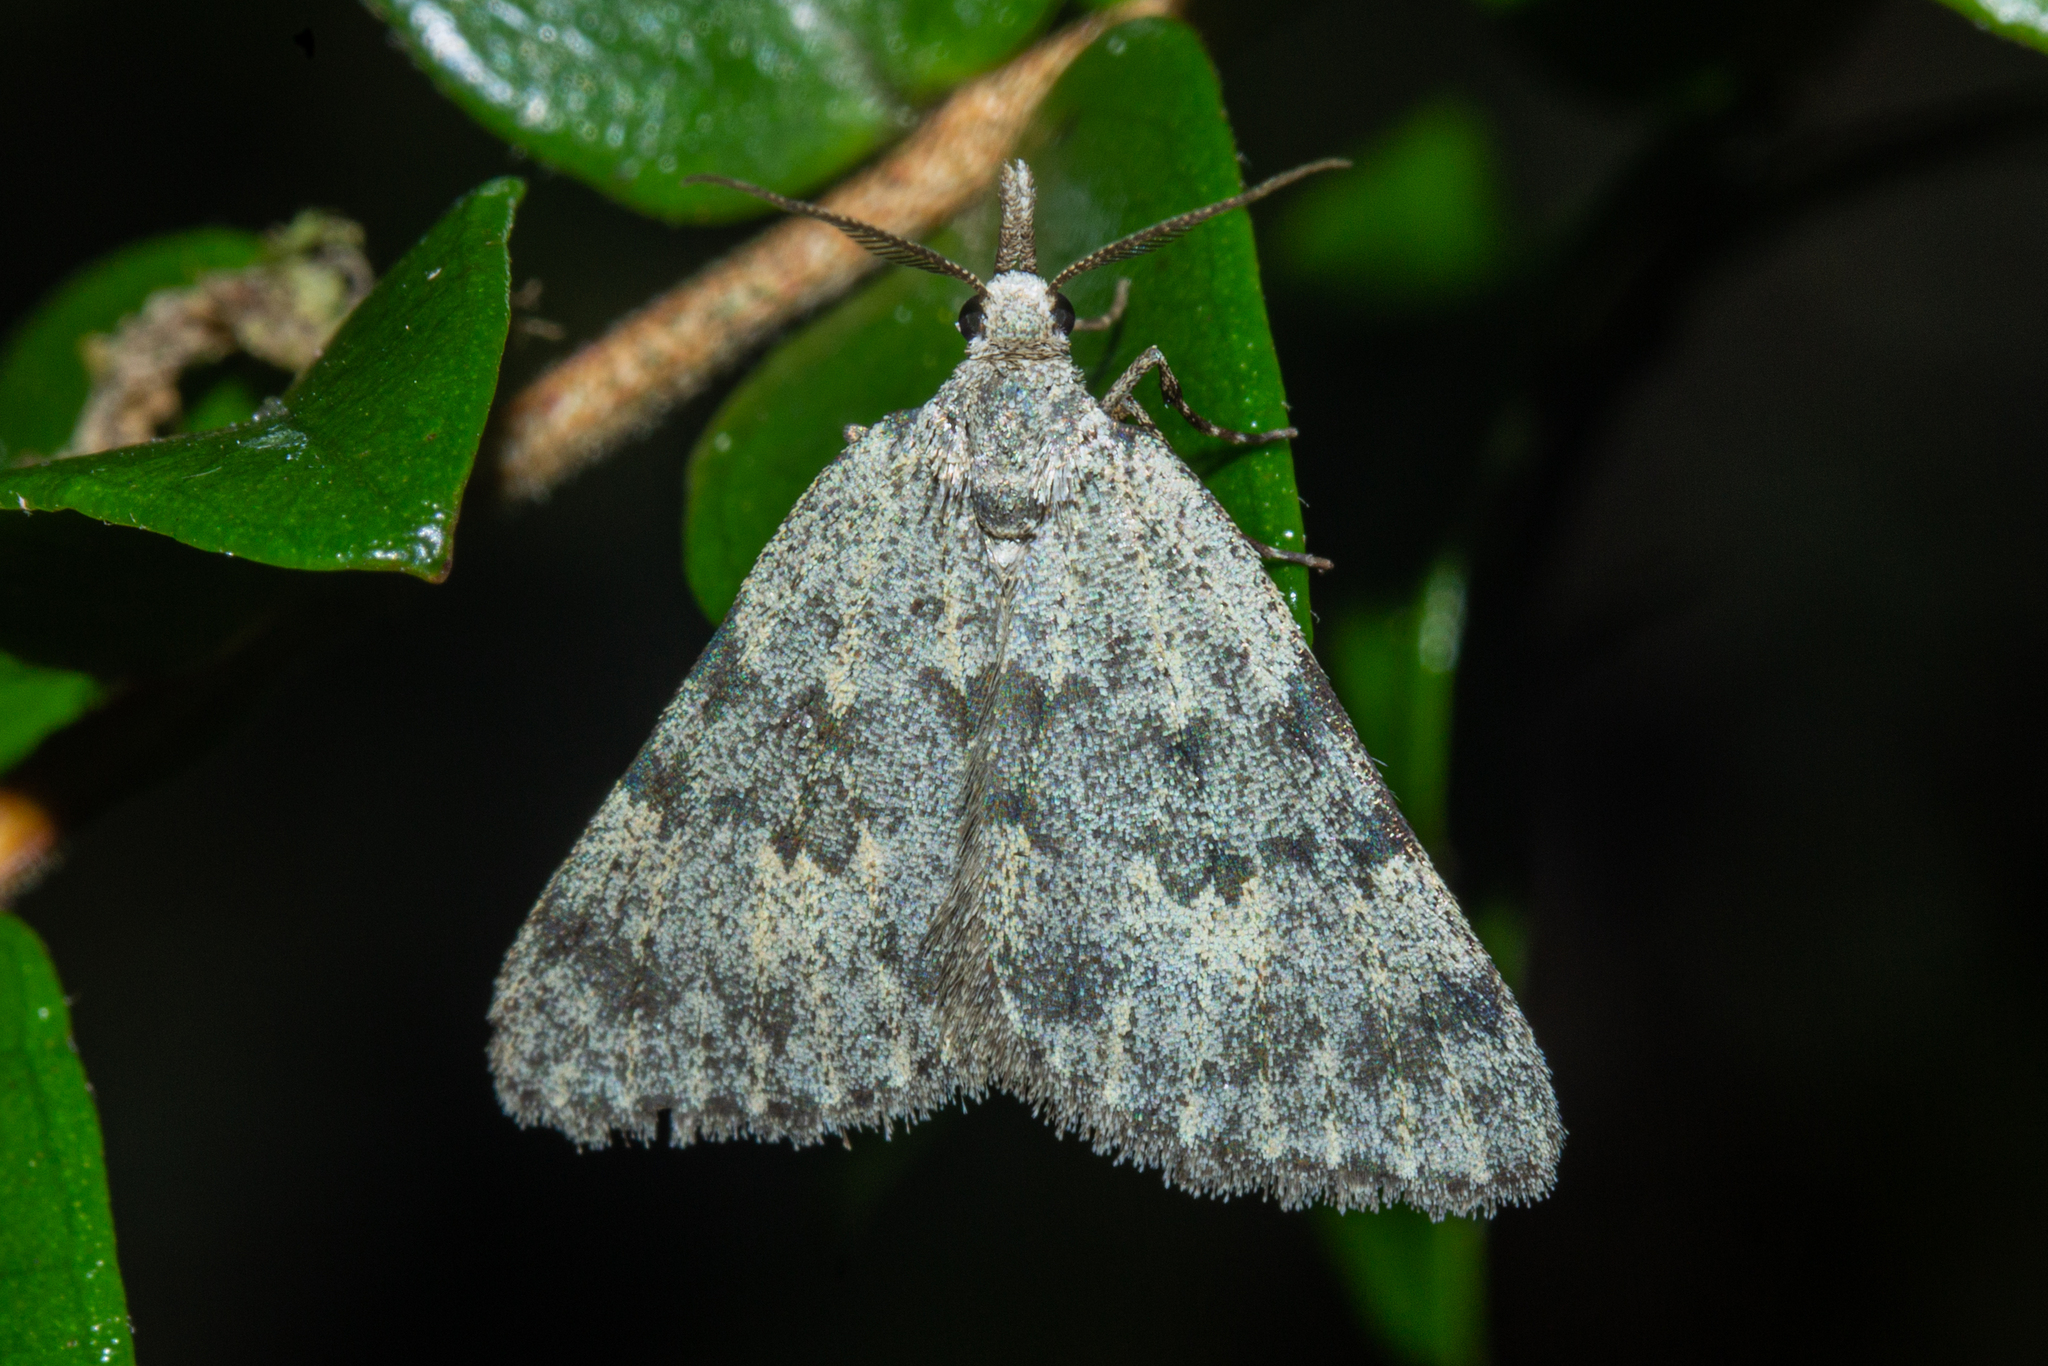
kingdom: Animalia
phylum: Arthropoda
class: Insecta
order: Lepidoptera
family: Geometridae
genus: Dichromodes
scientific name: Dichromodes sphaeriata
